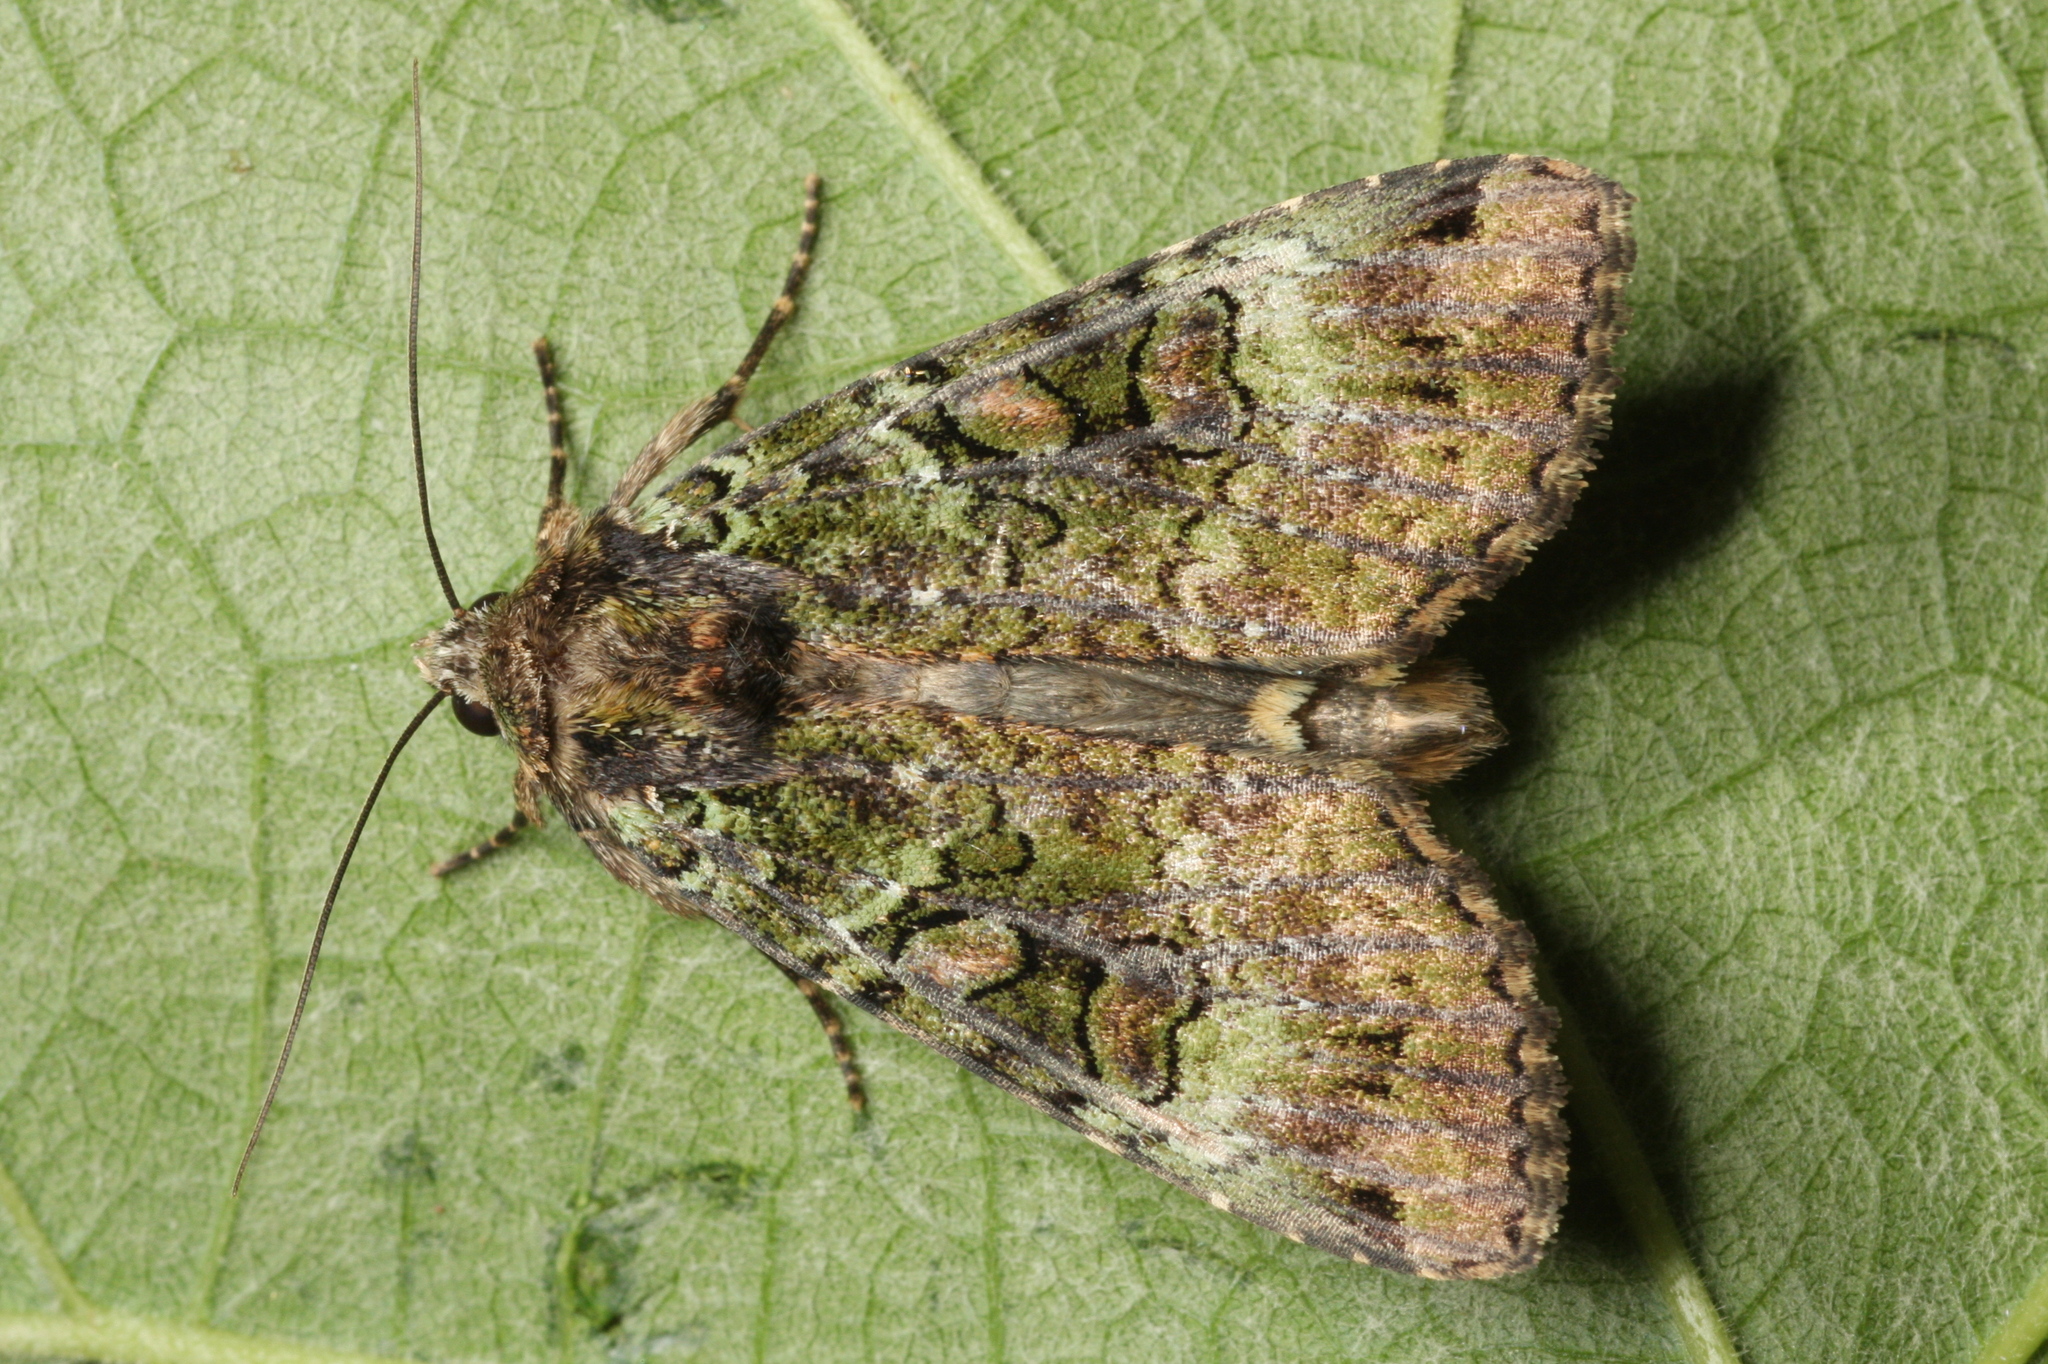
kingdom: Animalia
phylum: Arthropoda
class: Insecta
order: Lepidoptera
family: Noctuidae
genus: Anaplectoides
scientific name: Anaplectoides prasina
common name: Green arches
